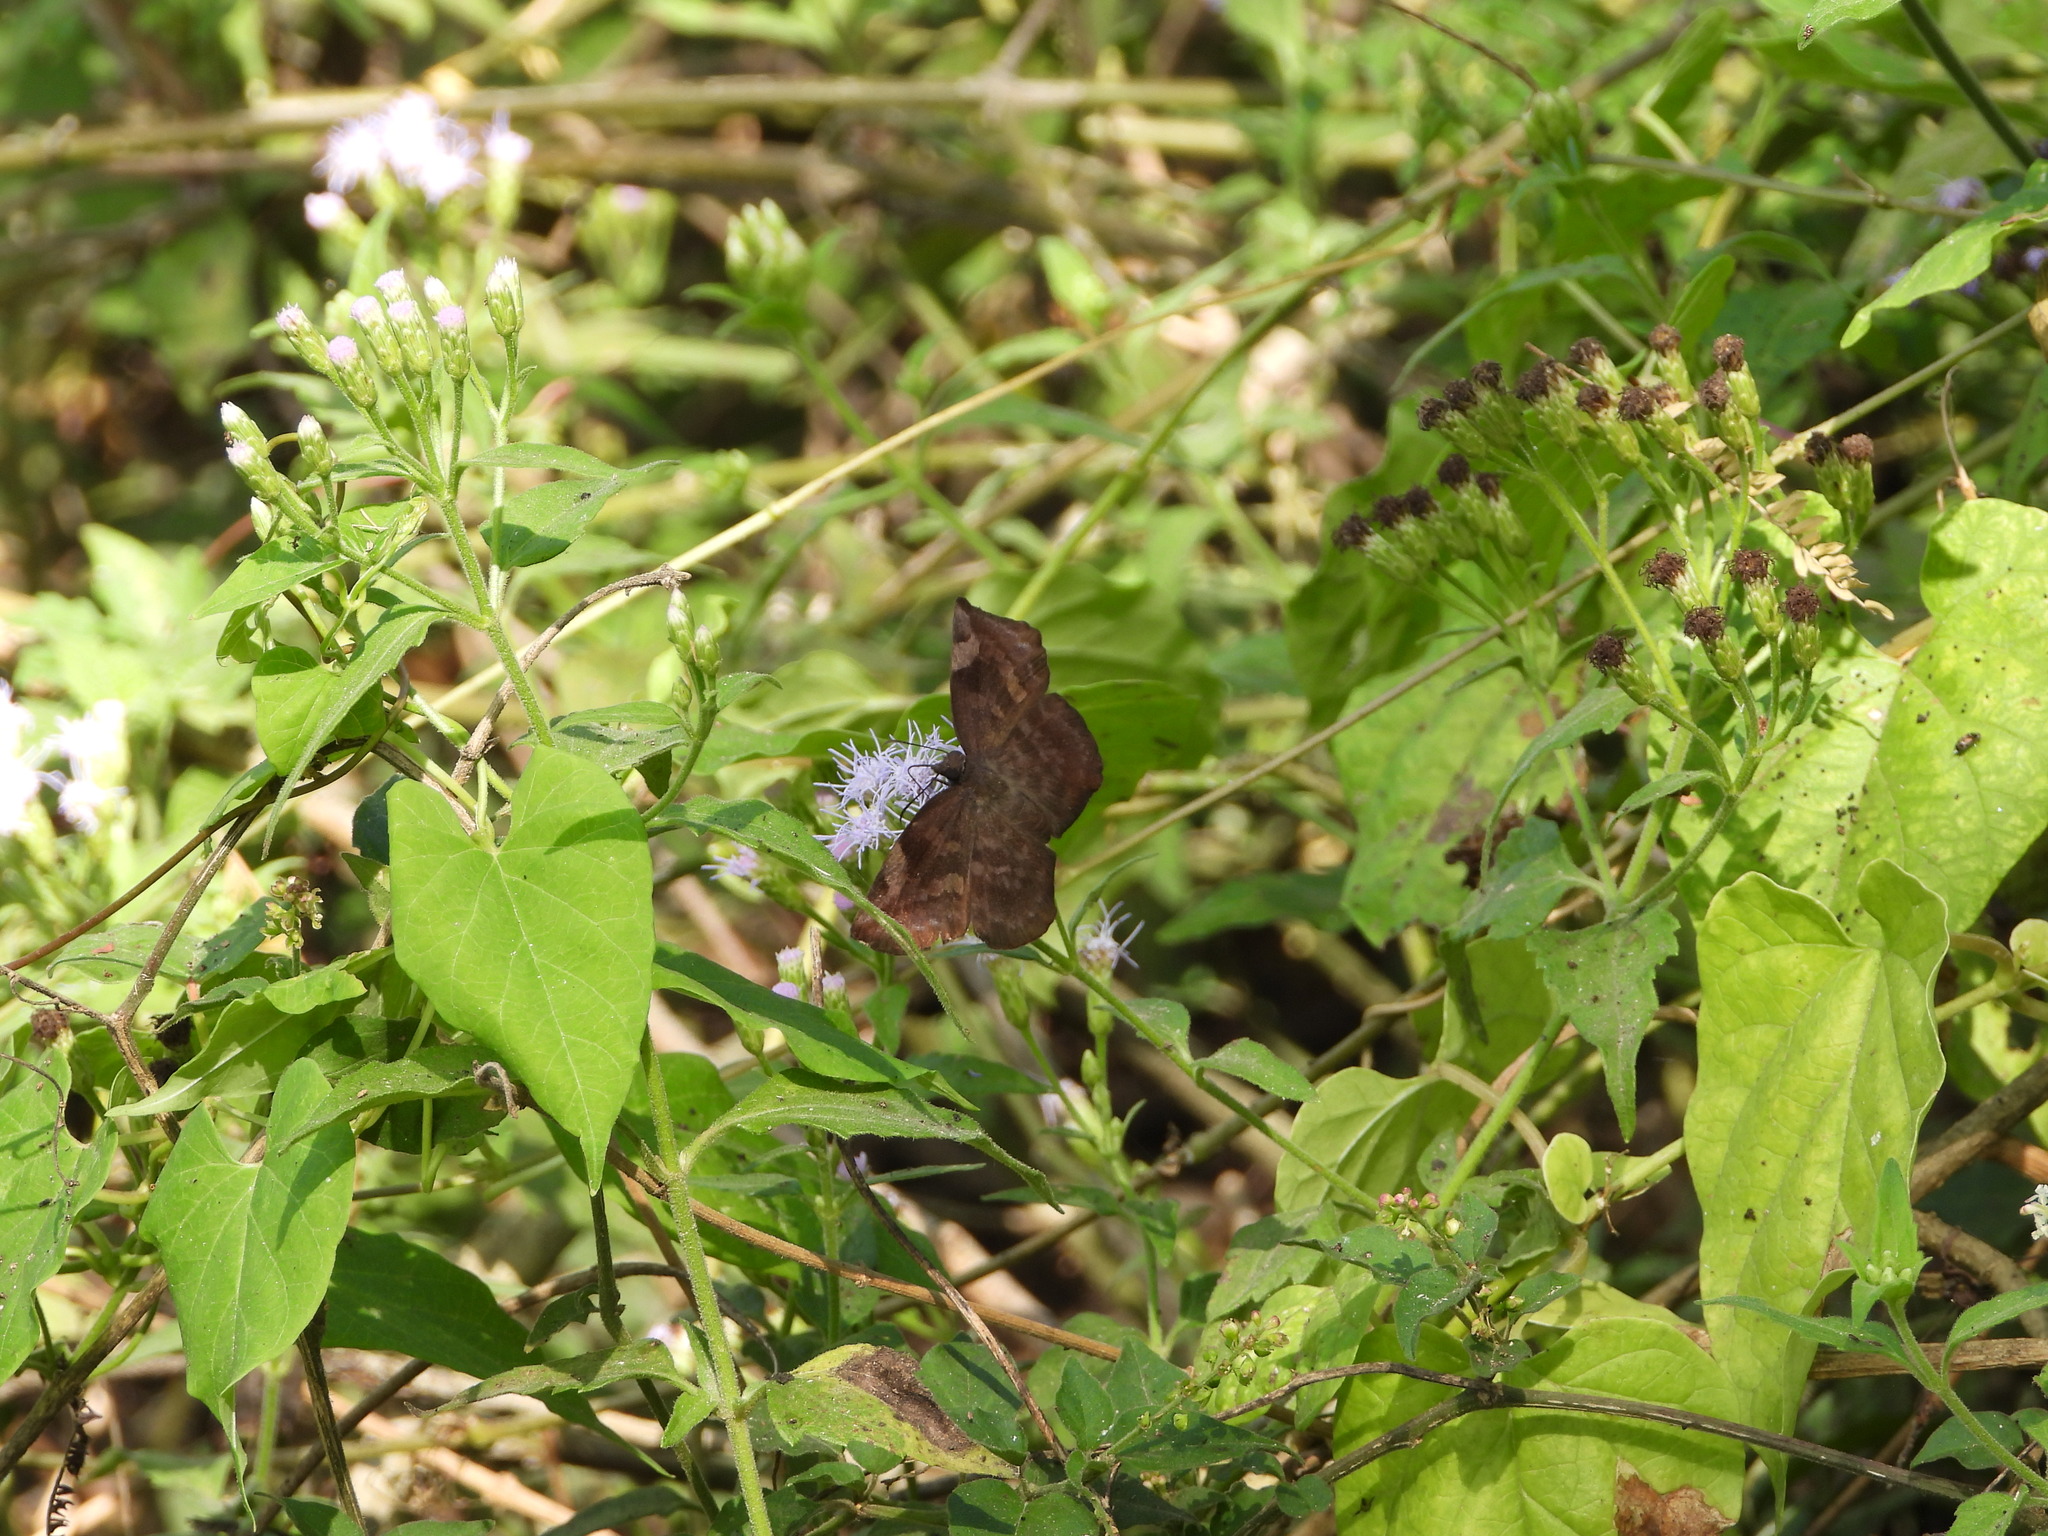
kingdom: Animalia
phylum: Arthropoda
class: Insecta
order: Lepidoptera
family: Hesperiidae
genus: Achlyodes
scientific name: Achlyodes thraso
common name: Sickle-winged skipper
